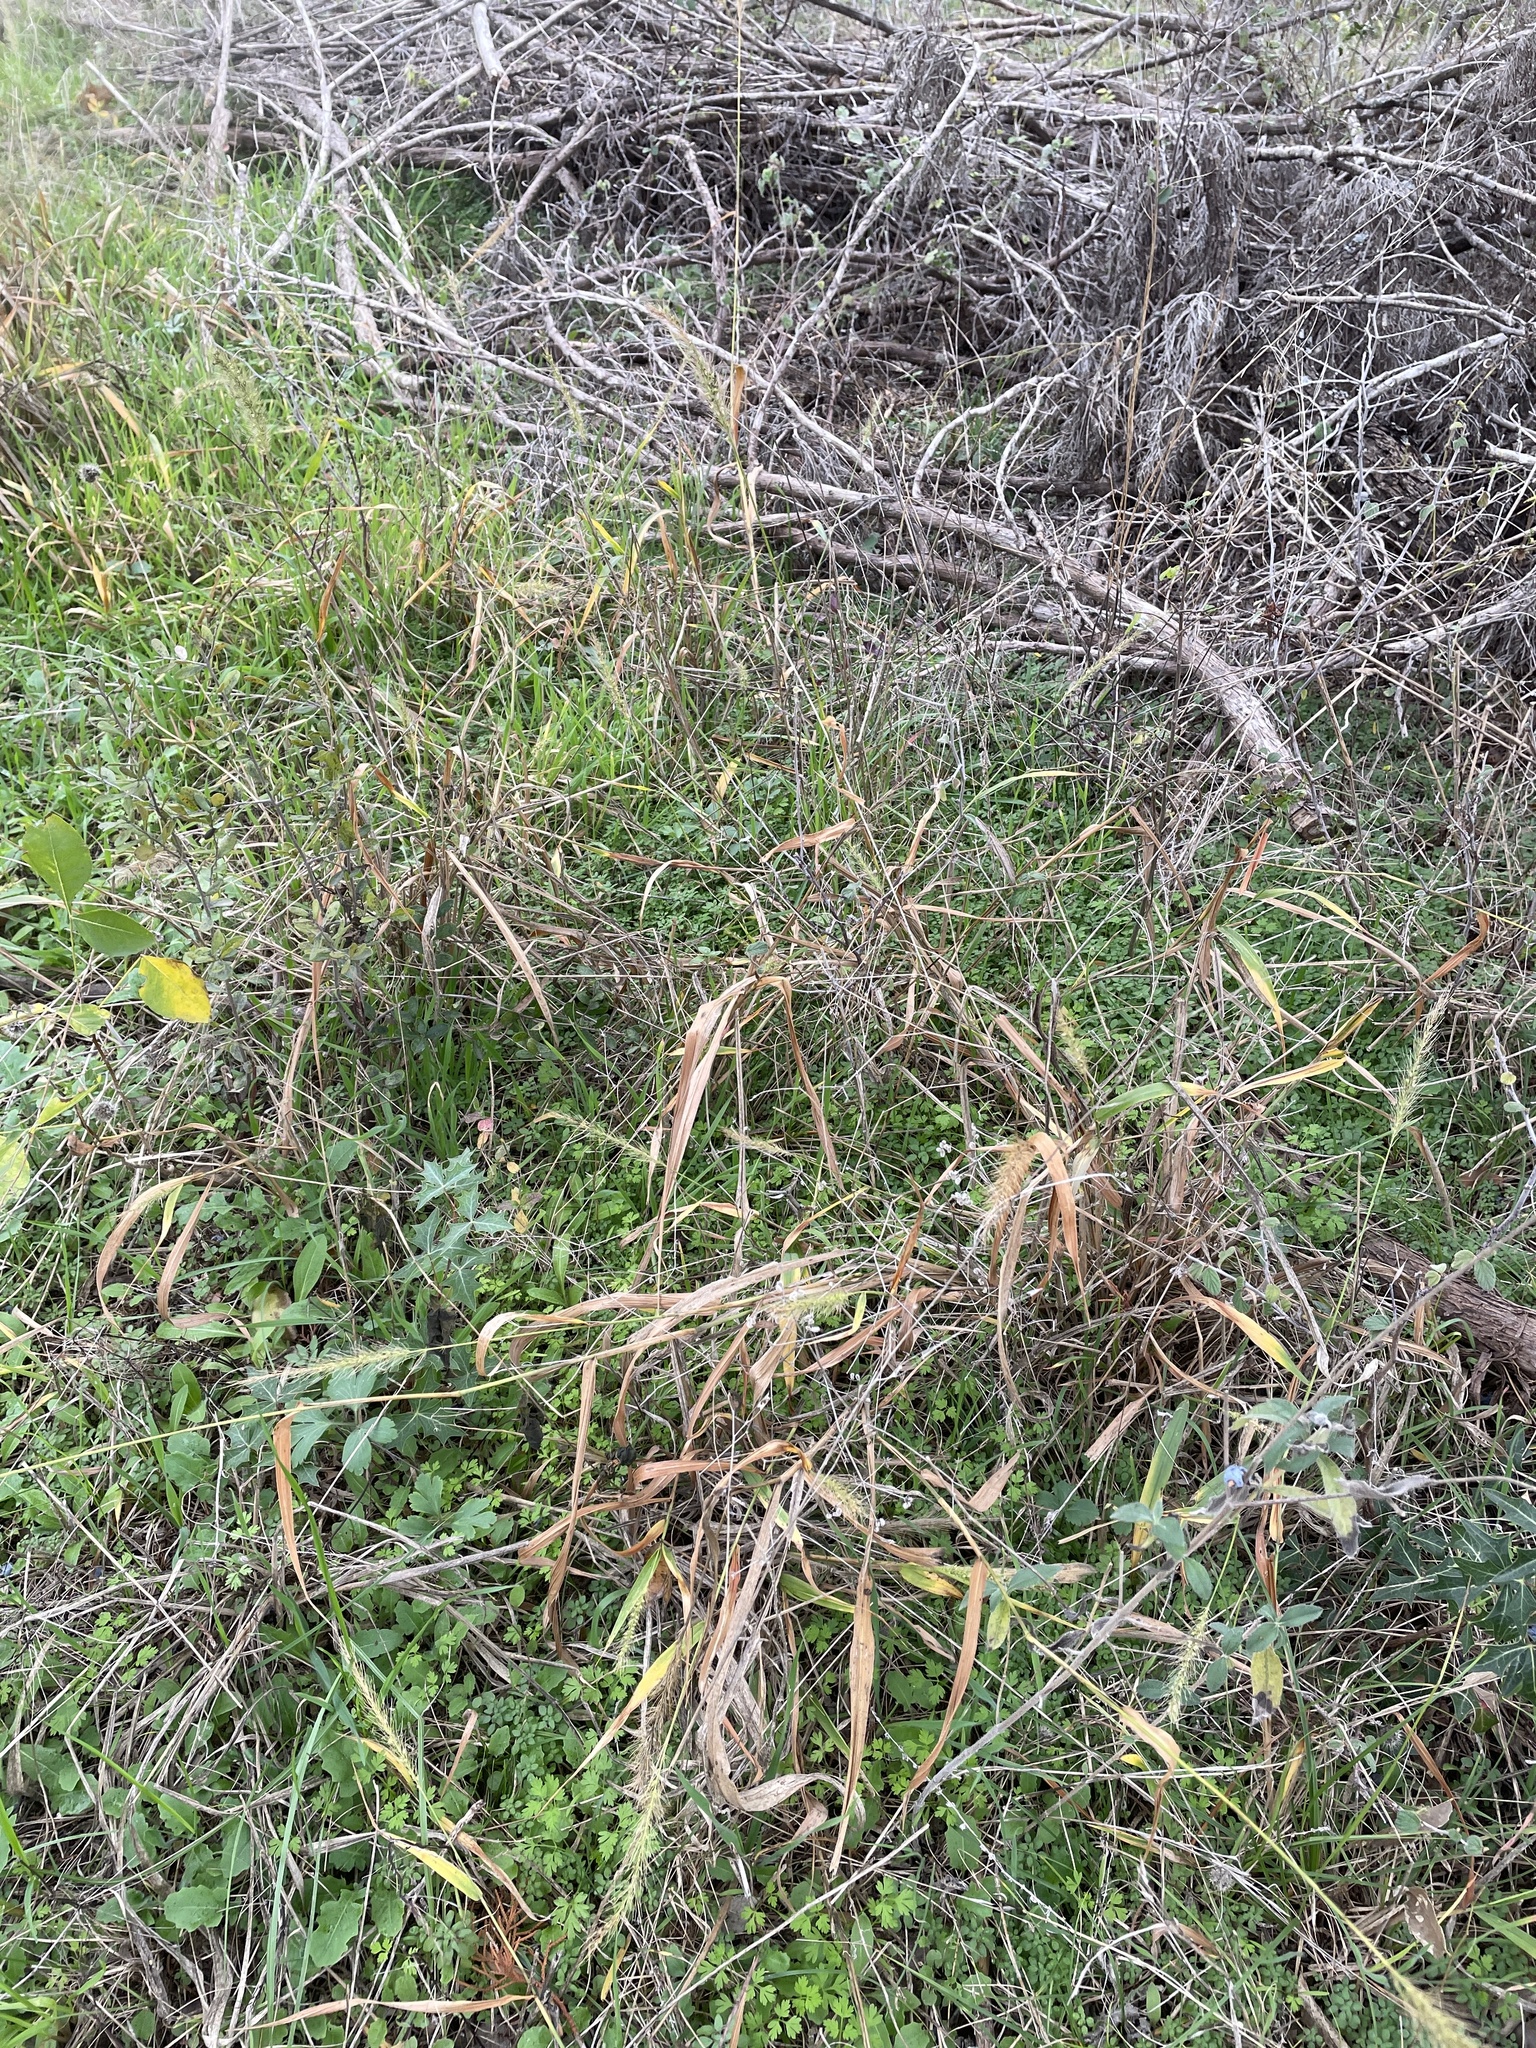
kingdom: Plantae
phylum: Tracheophyta
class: Liliopsida
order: Poales
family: Poaceae
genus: Setaria
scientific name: Setaria scheelei
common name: Southwestern bristle grass
